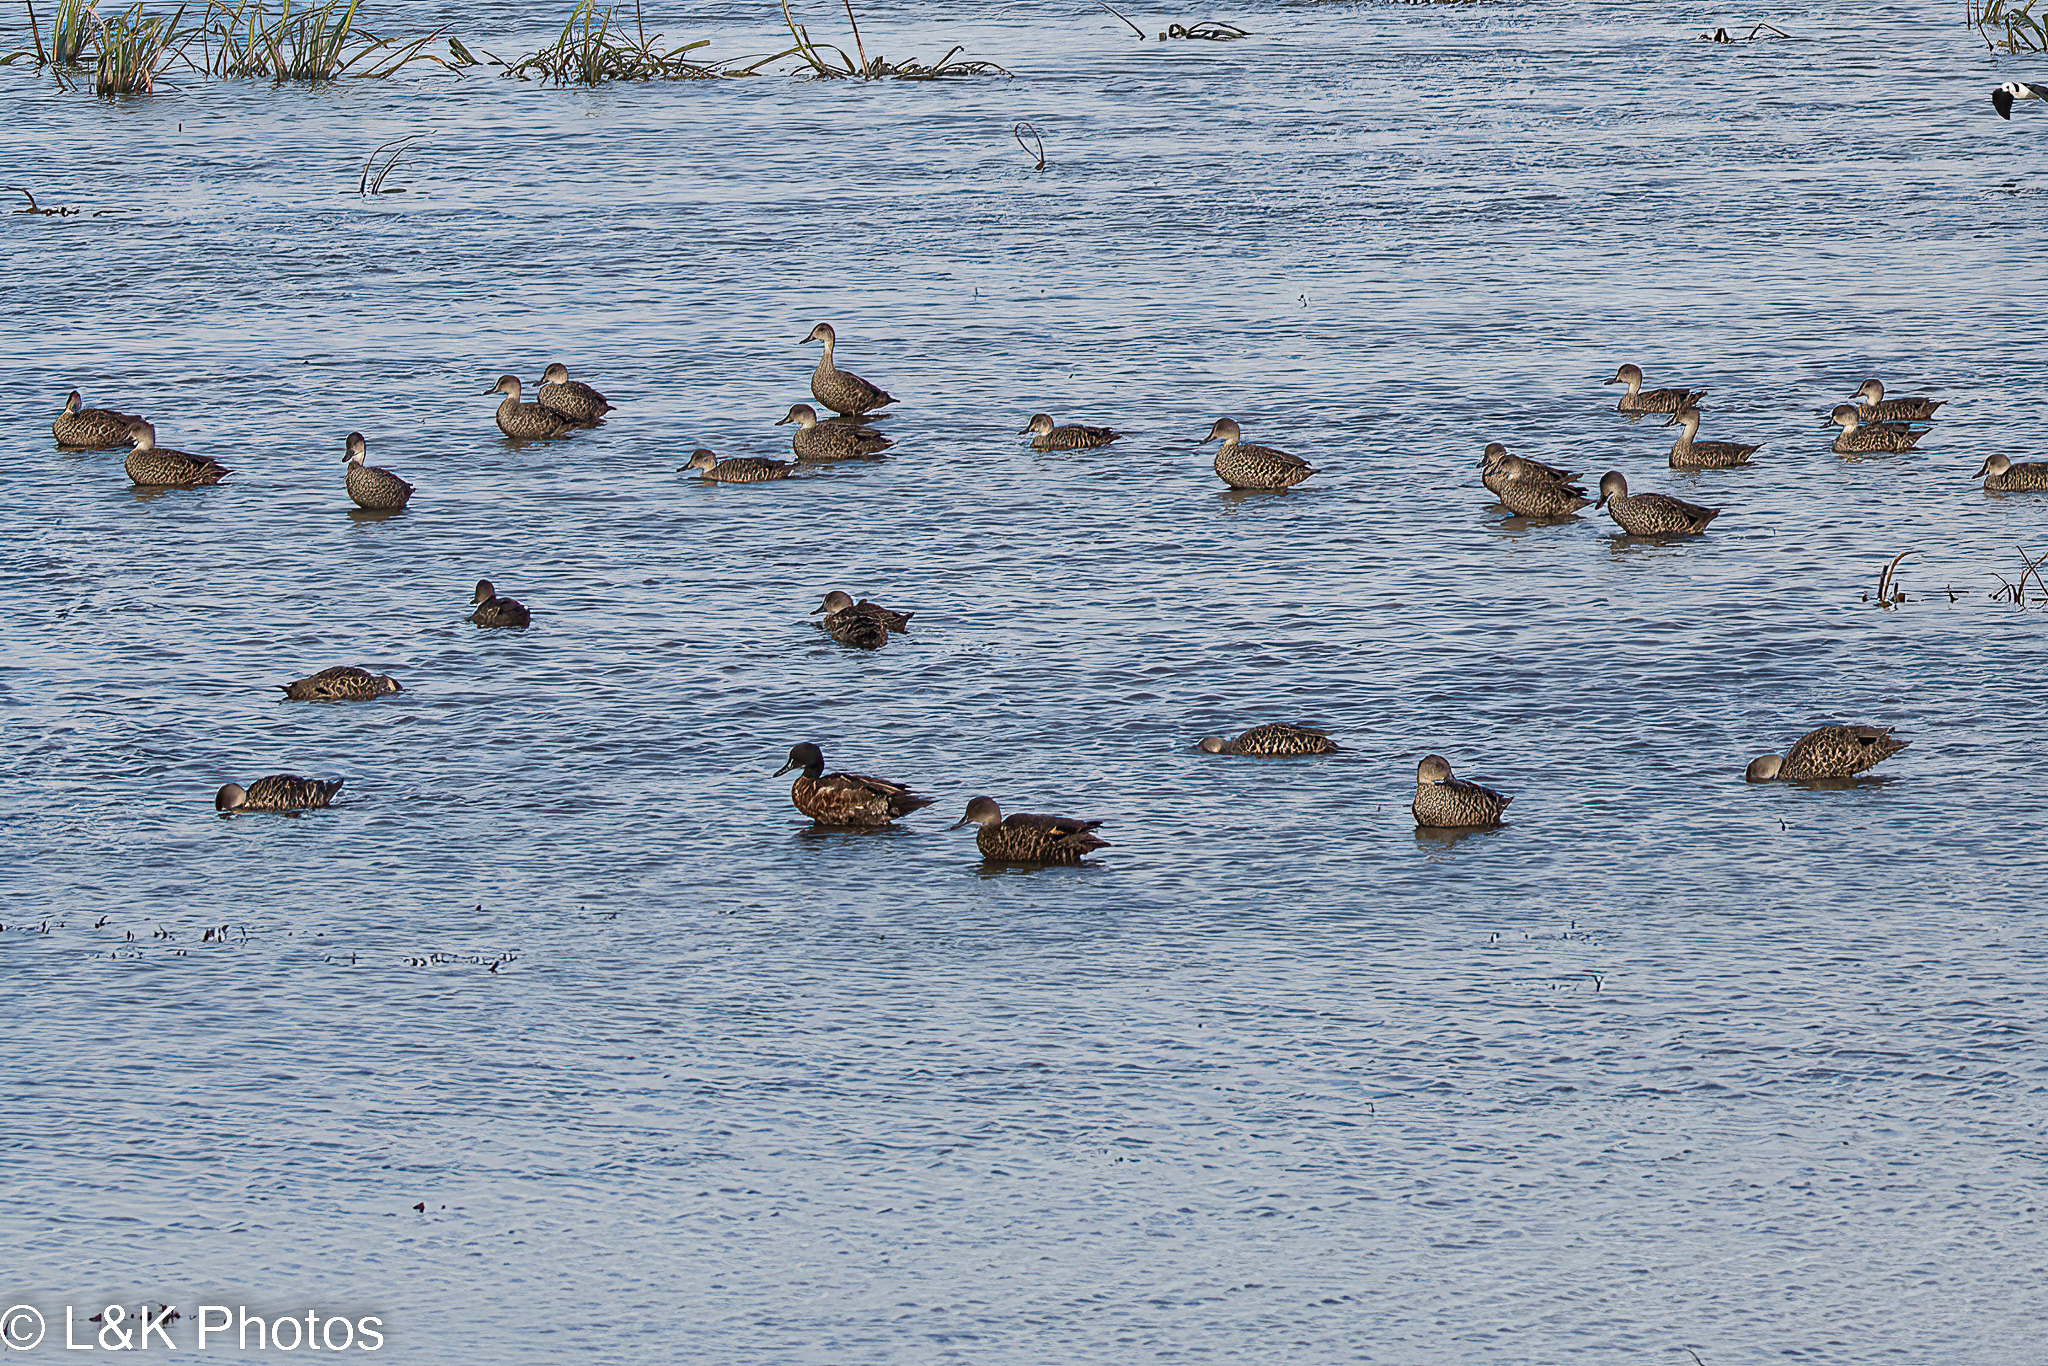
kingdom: Animalia
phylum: Chordata
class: Aves
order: Anseriformes
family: Anatidae
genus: Anas
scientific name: Anas gracilis
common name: Grey teal
